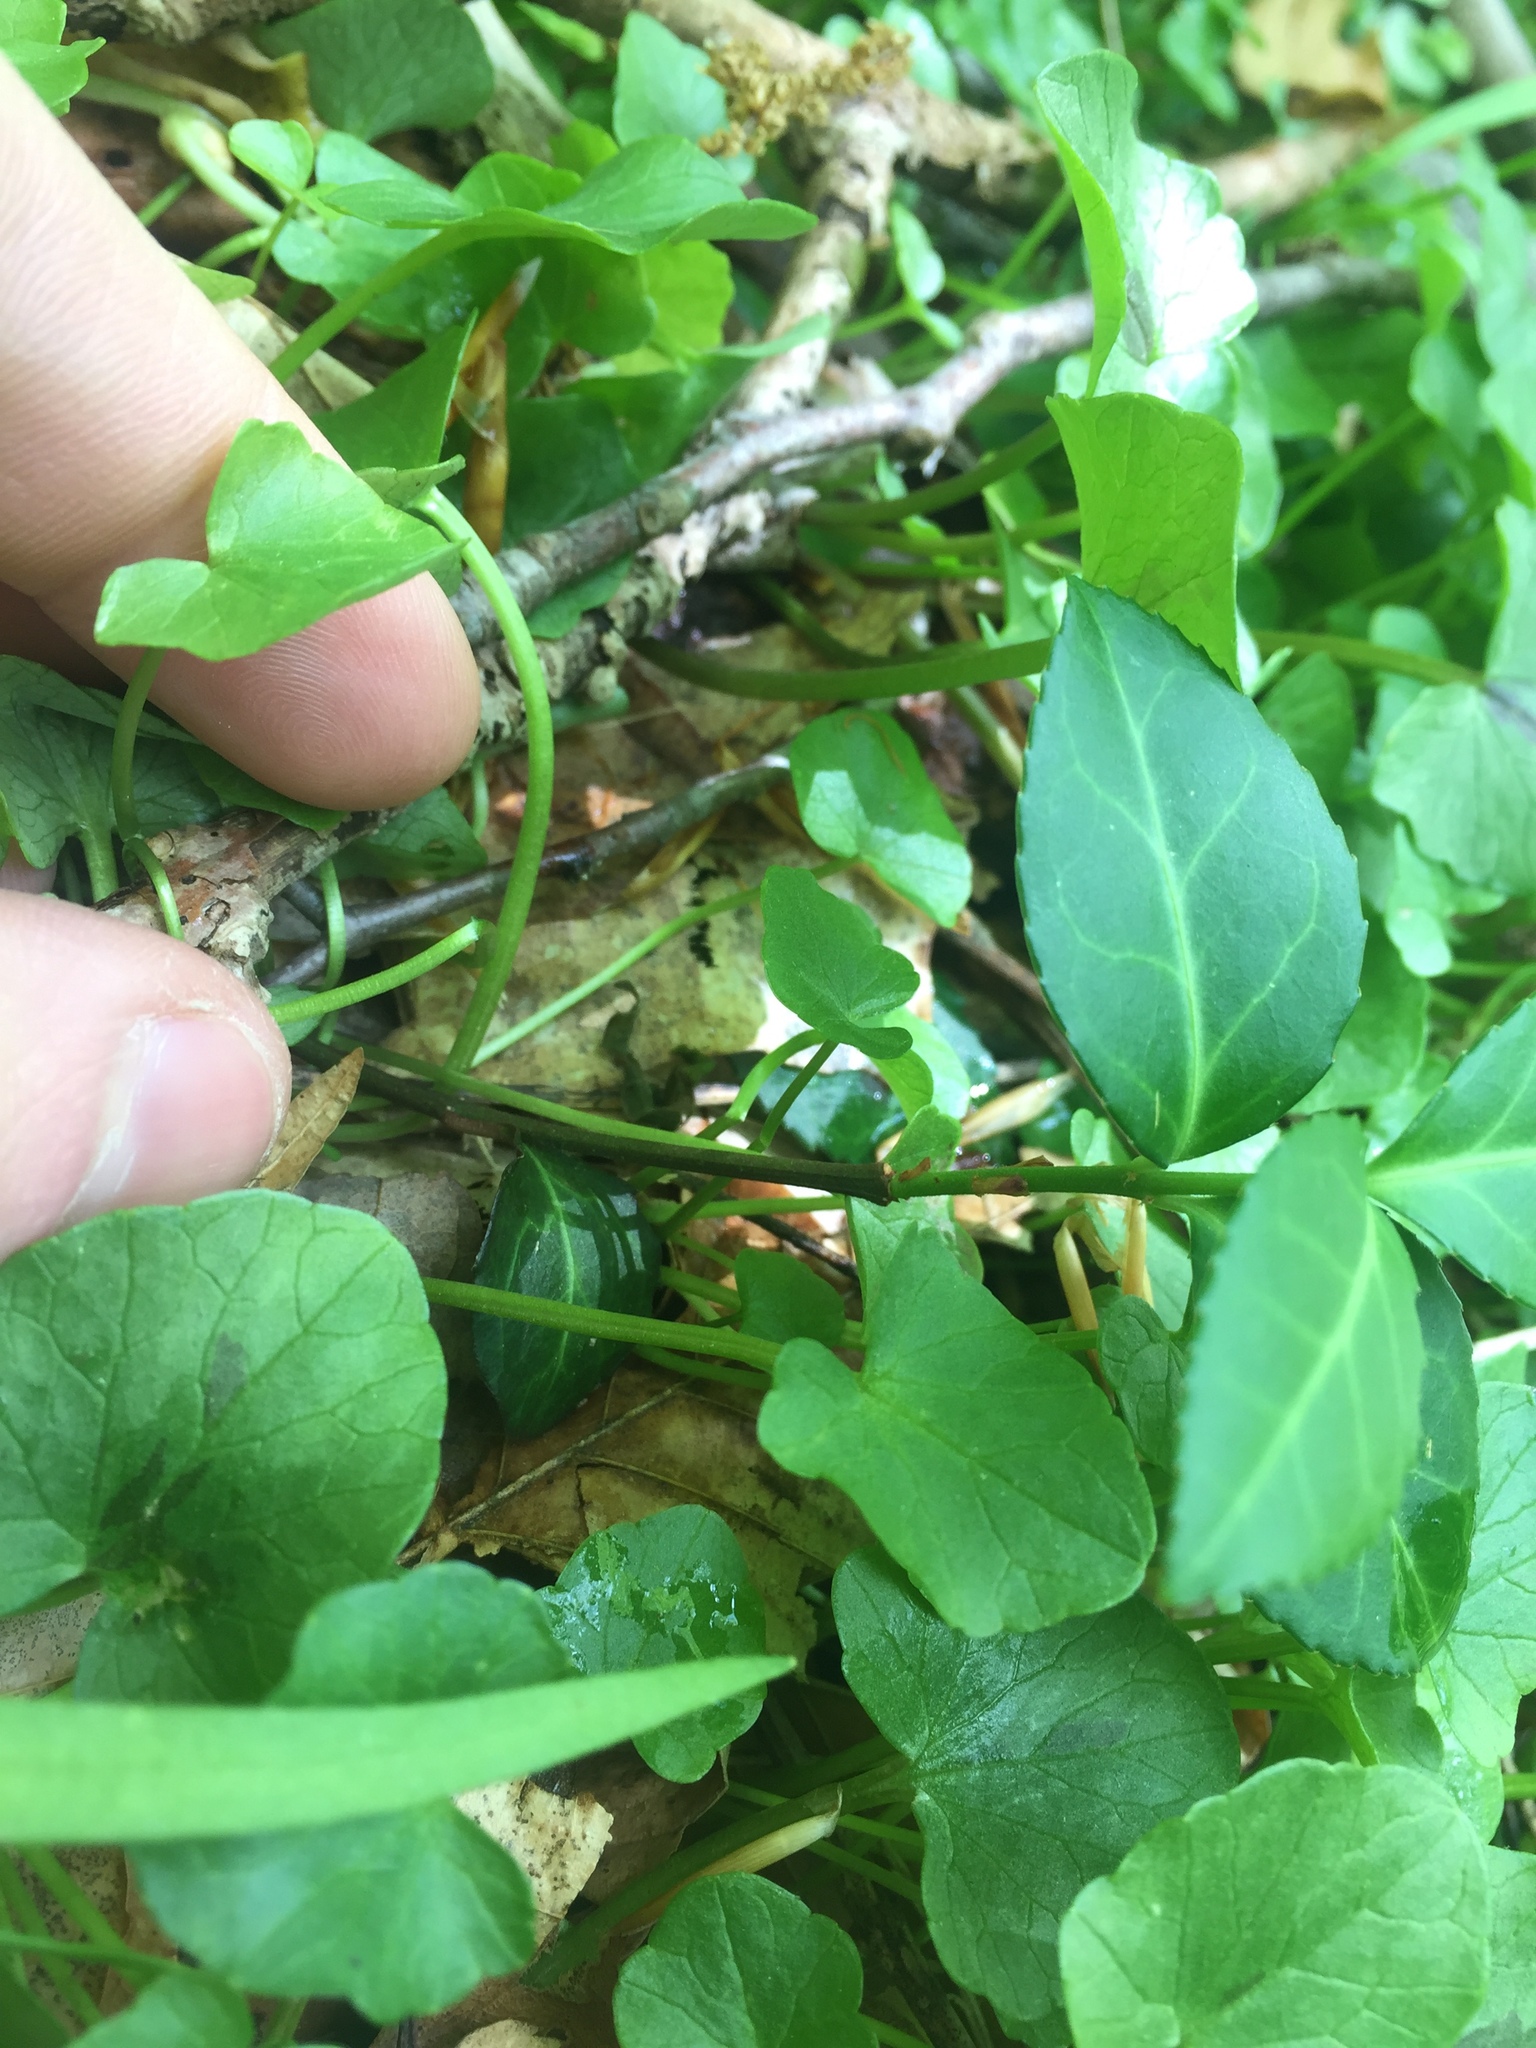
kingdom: Plantae
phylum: Tracheophyta
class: Magnoliopsida
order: Celastrales
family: Celastraceae
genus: Euonymus
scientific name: Euonymus fortunei
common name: Climbing euonymus
